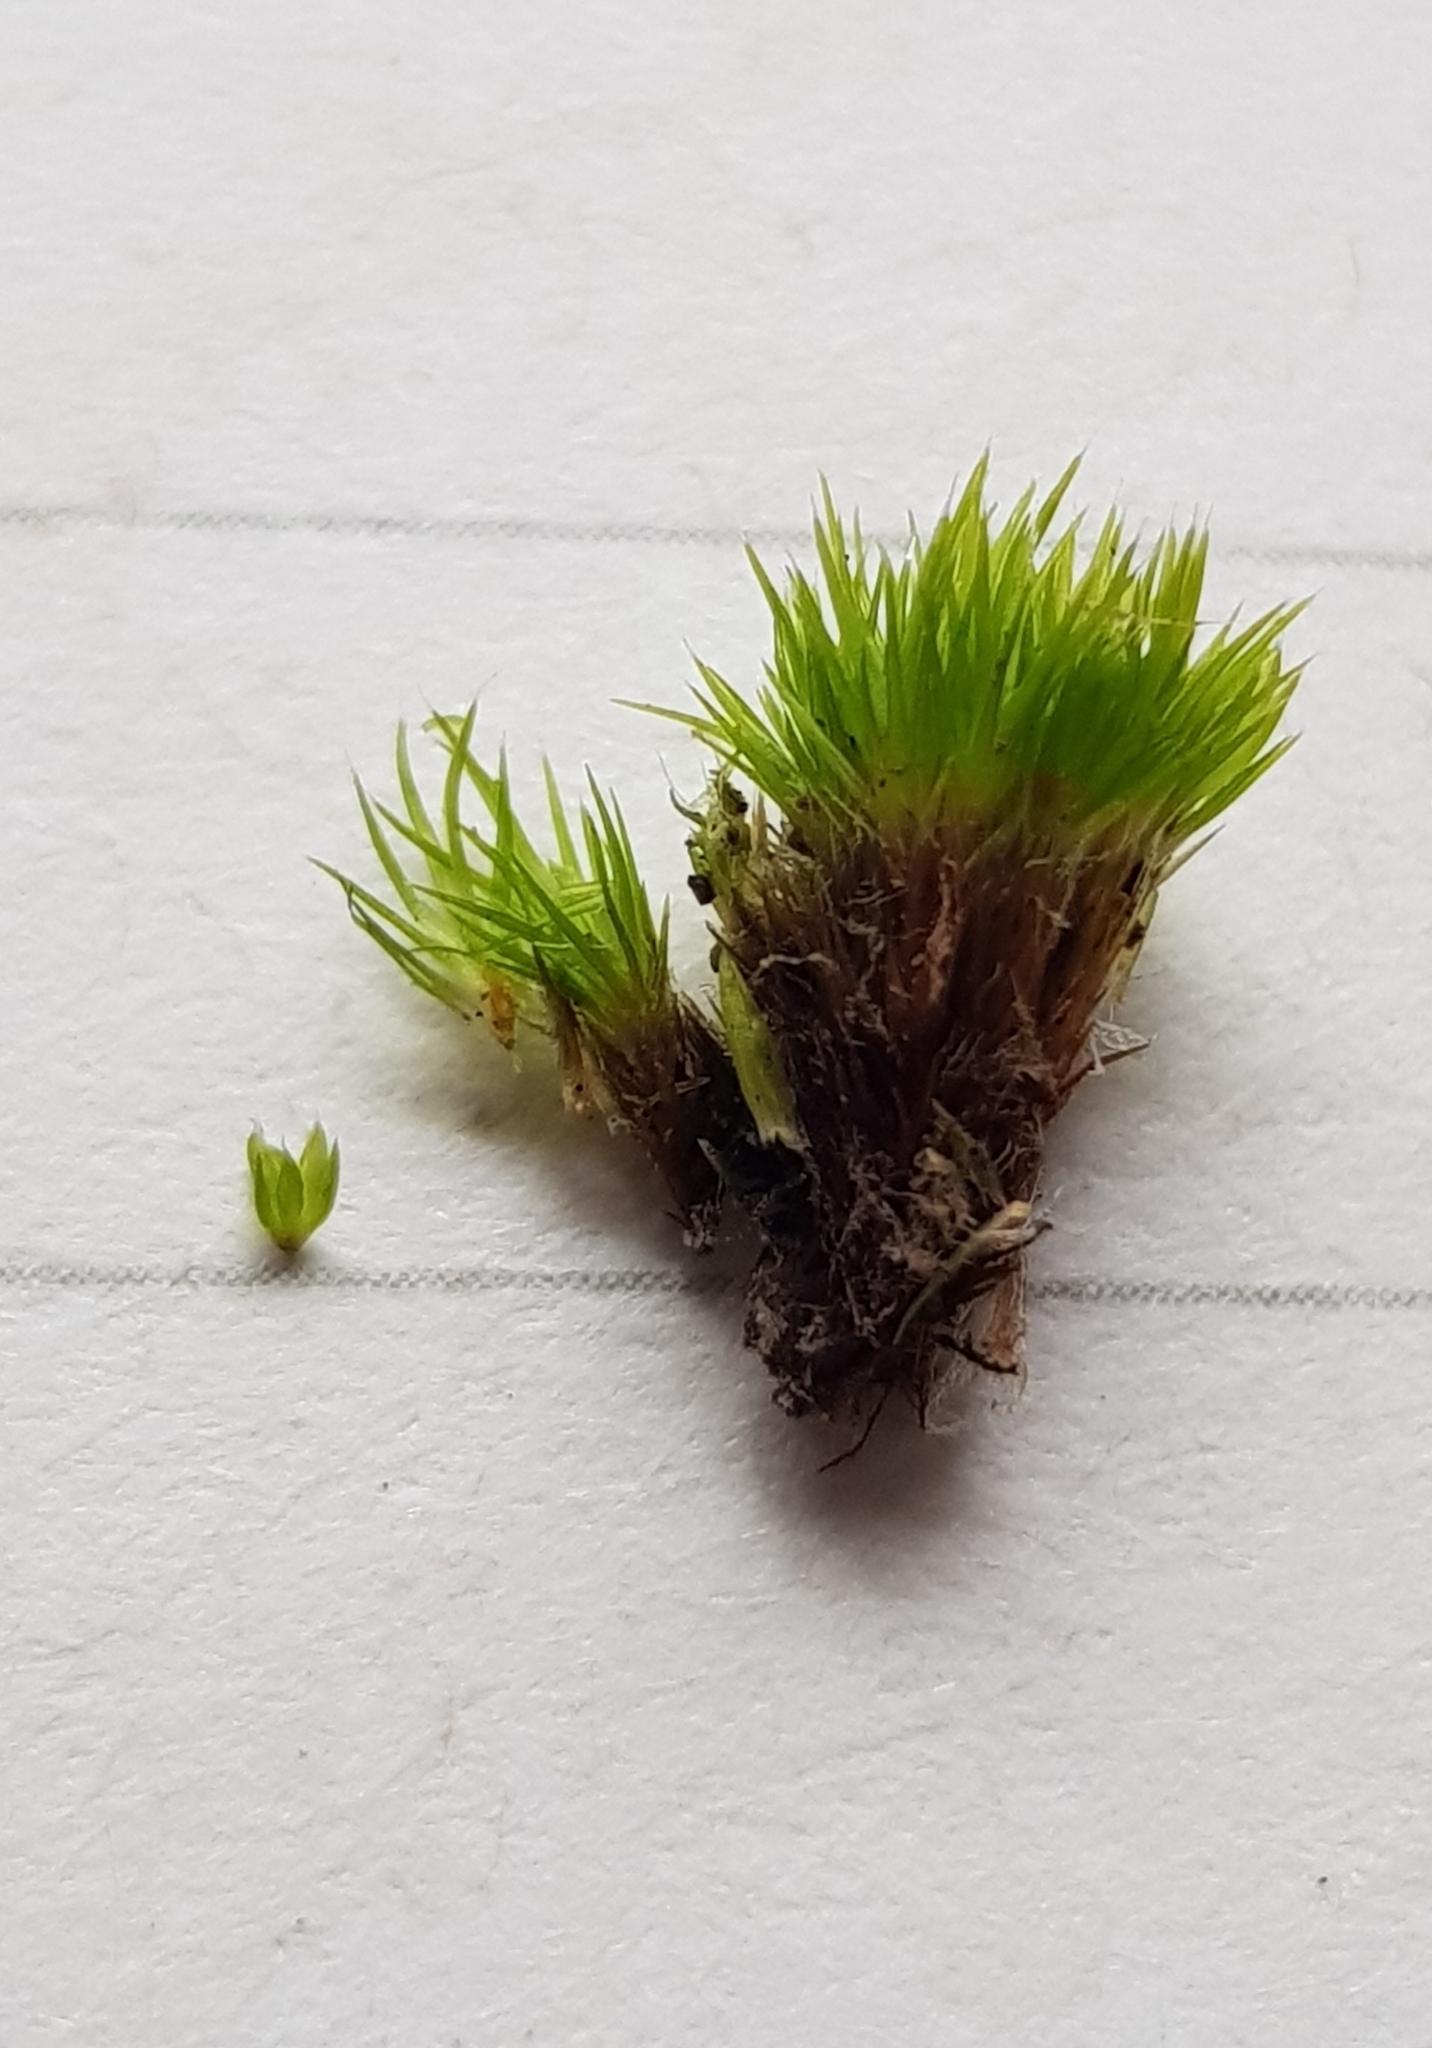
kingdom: Plantae
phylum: Bryophyta
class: Bryopsida
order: Dicranales
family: Leucobryaceae
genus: Campylopus
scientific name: Campylopus flexuosus
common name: Rusty swan-neck moss
